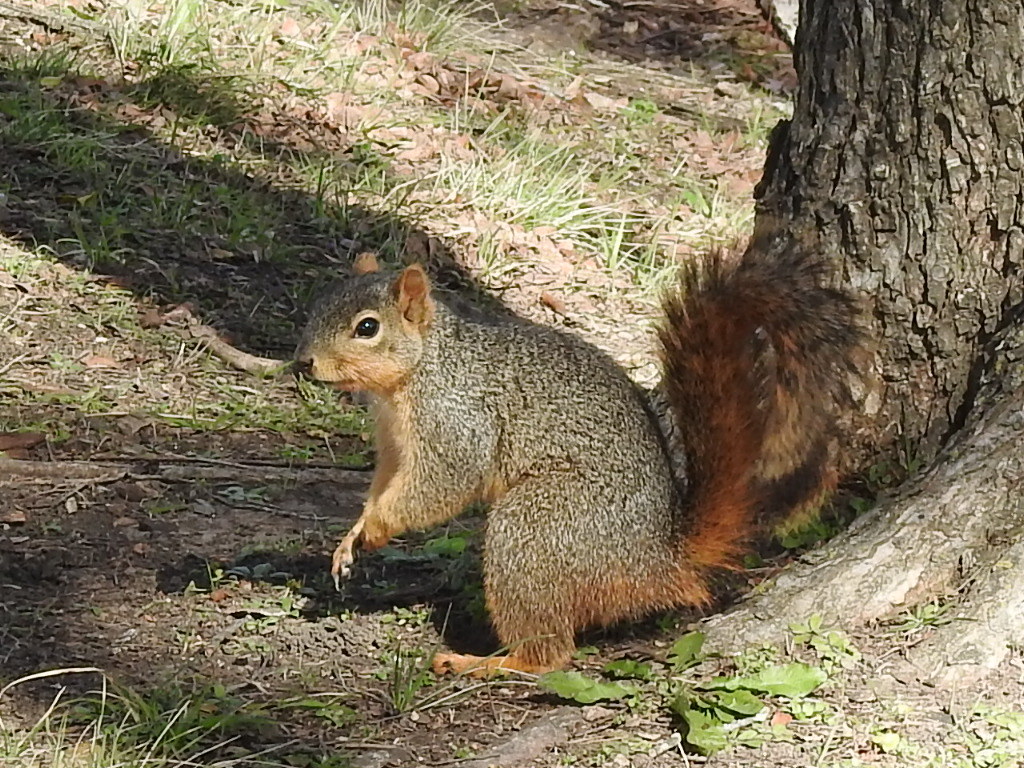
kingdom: Animalia
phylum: Chordata
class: Mammalia
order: Rodentia
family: Sciuridae
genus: Sciurus
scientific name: Sciurus niger
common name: Fox squirrel
